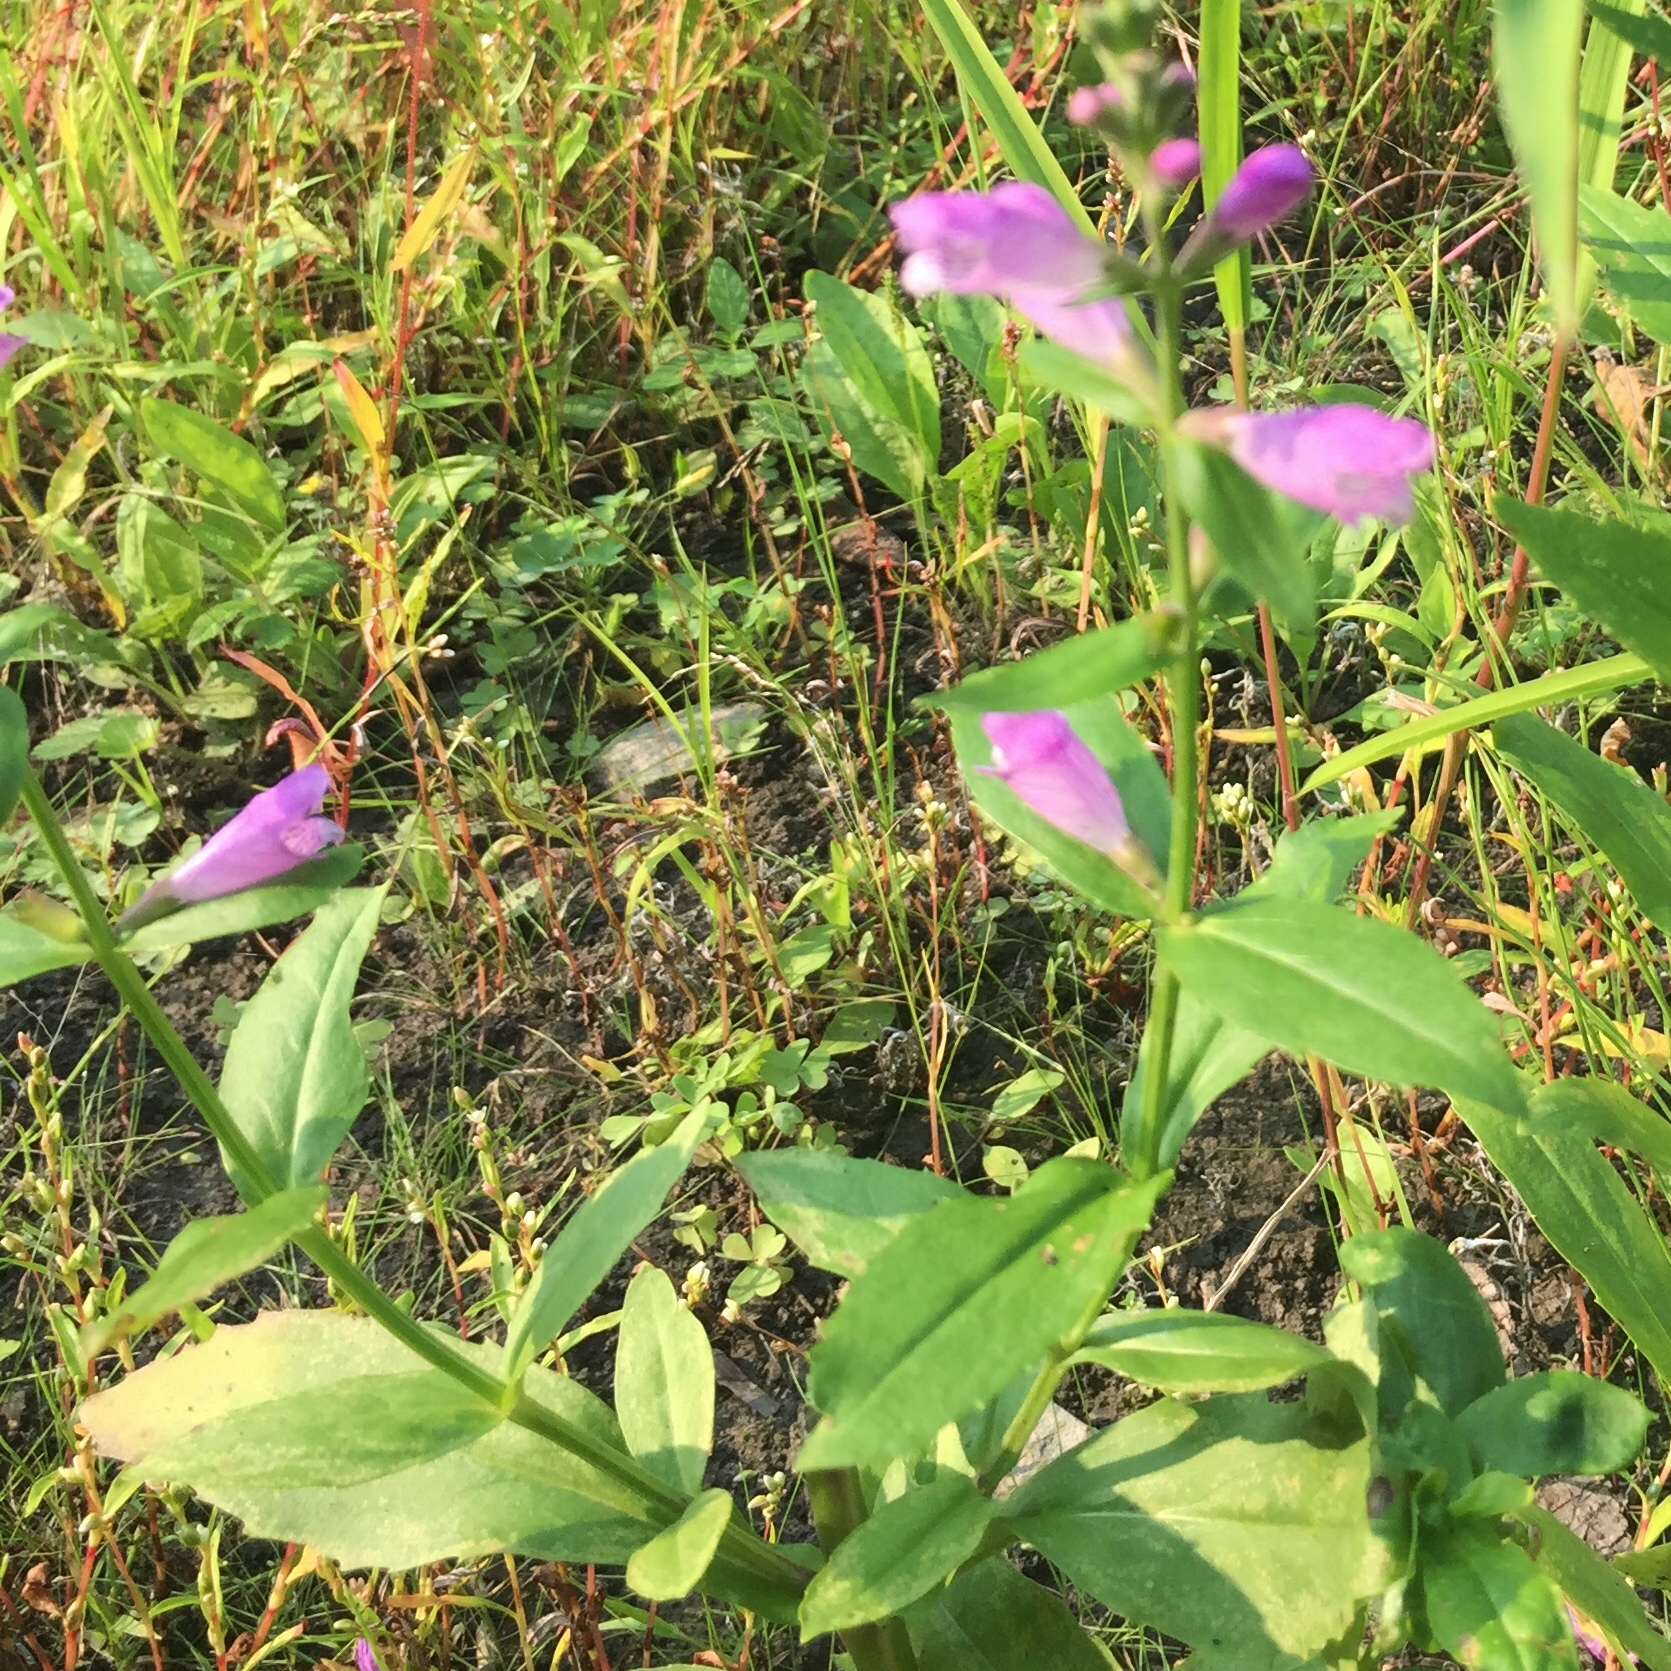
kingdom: Plantae
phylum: Tracheophyta
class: Magnoliopsida
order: Lamiales
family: Lamiaceae
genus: Physostegia
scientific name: Physostegia virginiana
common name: Obedient-plant
